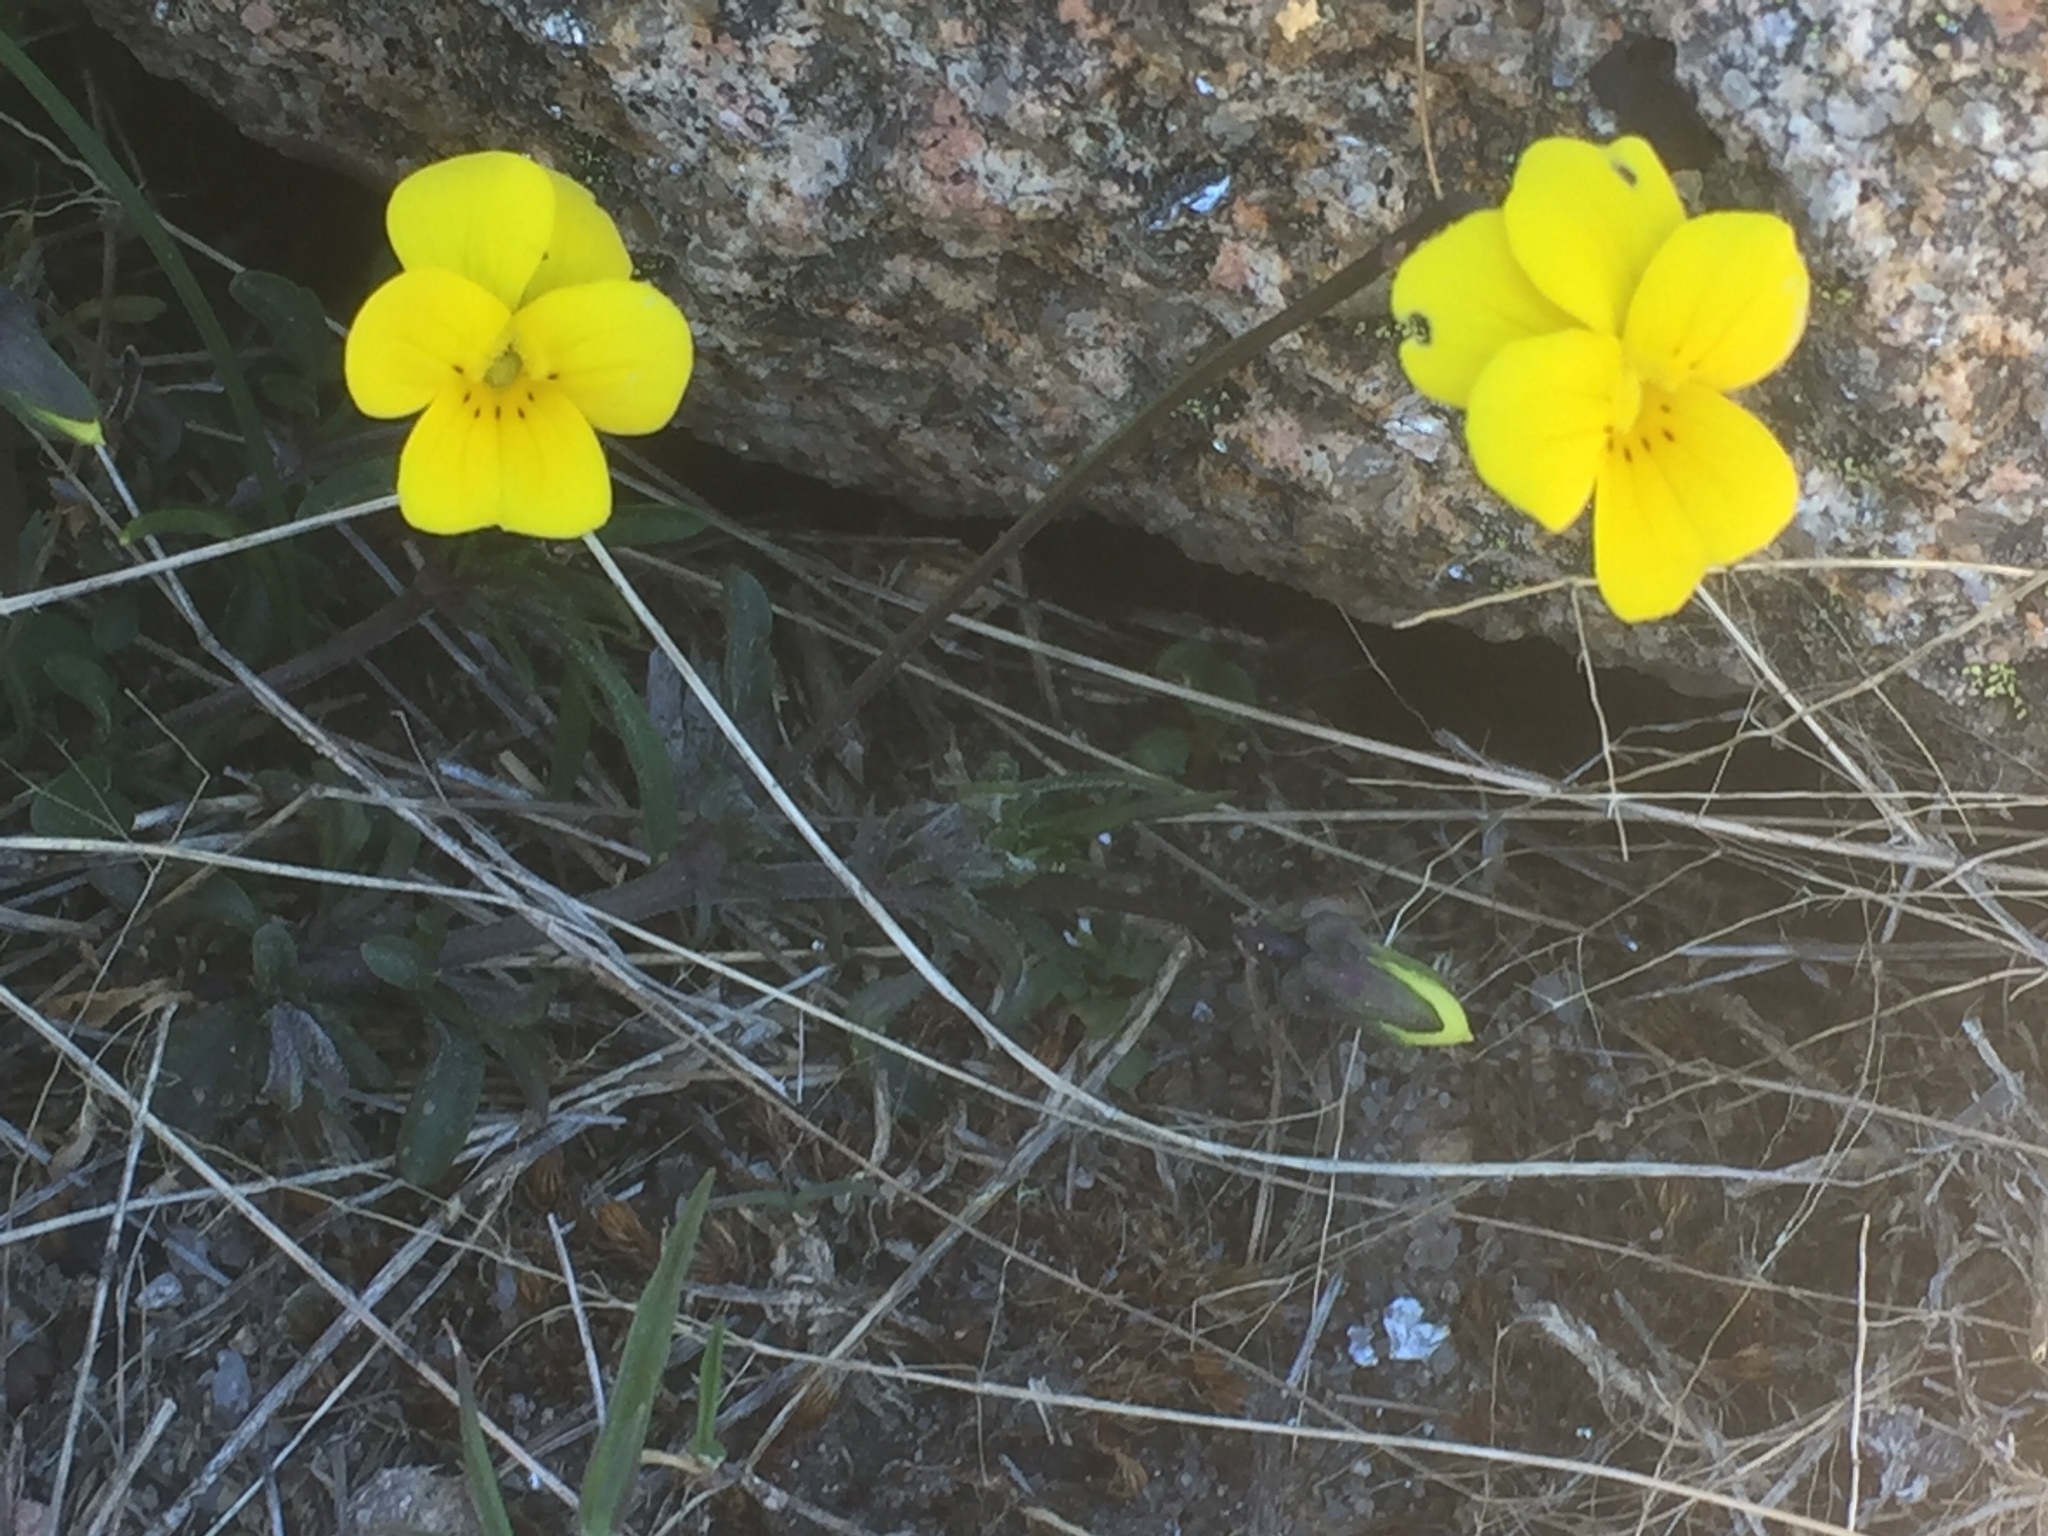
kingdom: Plantae
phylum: Tracheophyta
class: Magnoliopsida
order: Malpighiales
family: Violaceae
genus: Viola
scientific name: Viola langeana
